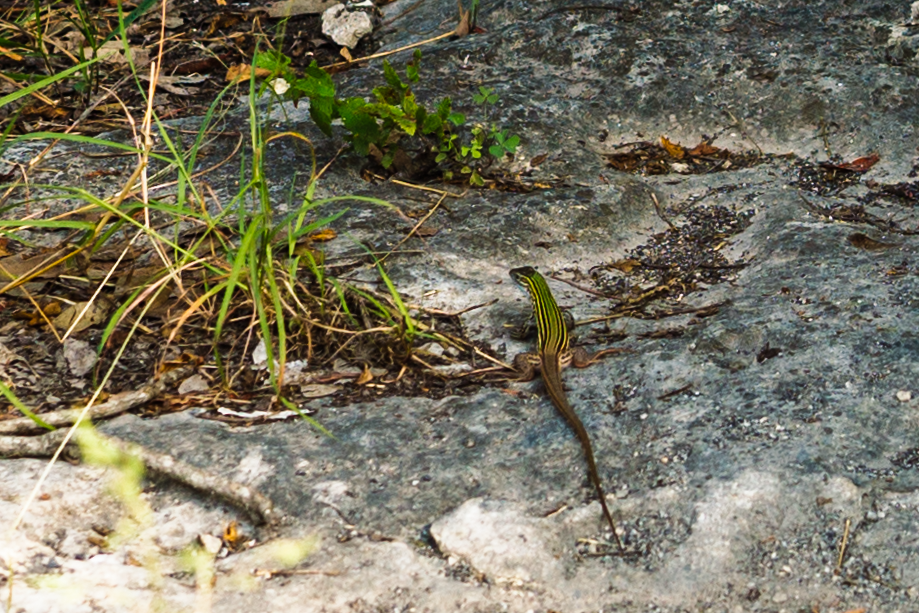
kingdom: Animalia
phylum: Chordata
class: Squamata
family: Teiidae
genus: Aspidoscelis
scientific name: Aspidoscelis gularis
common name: Eastern spotted whiptail
